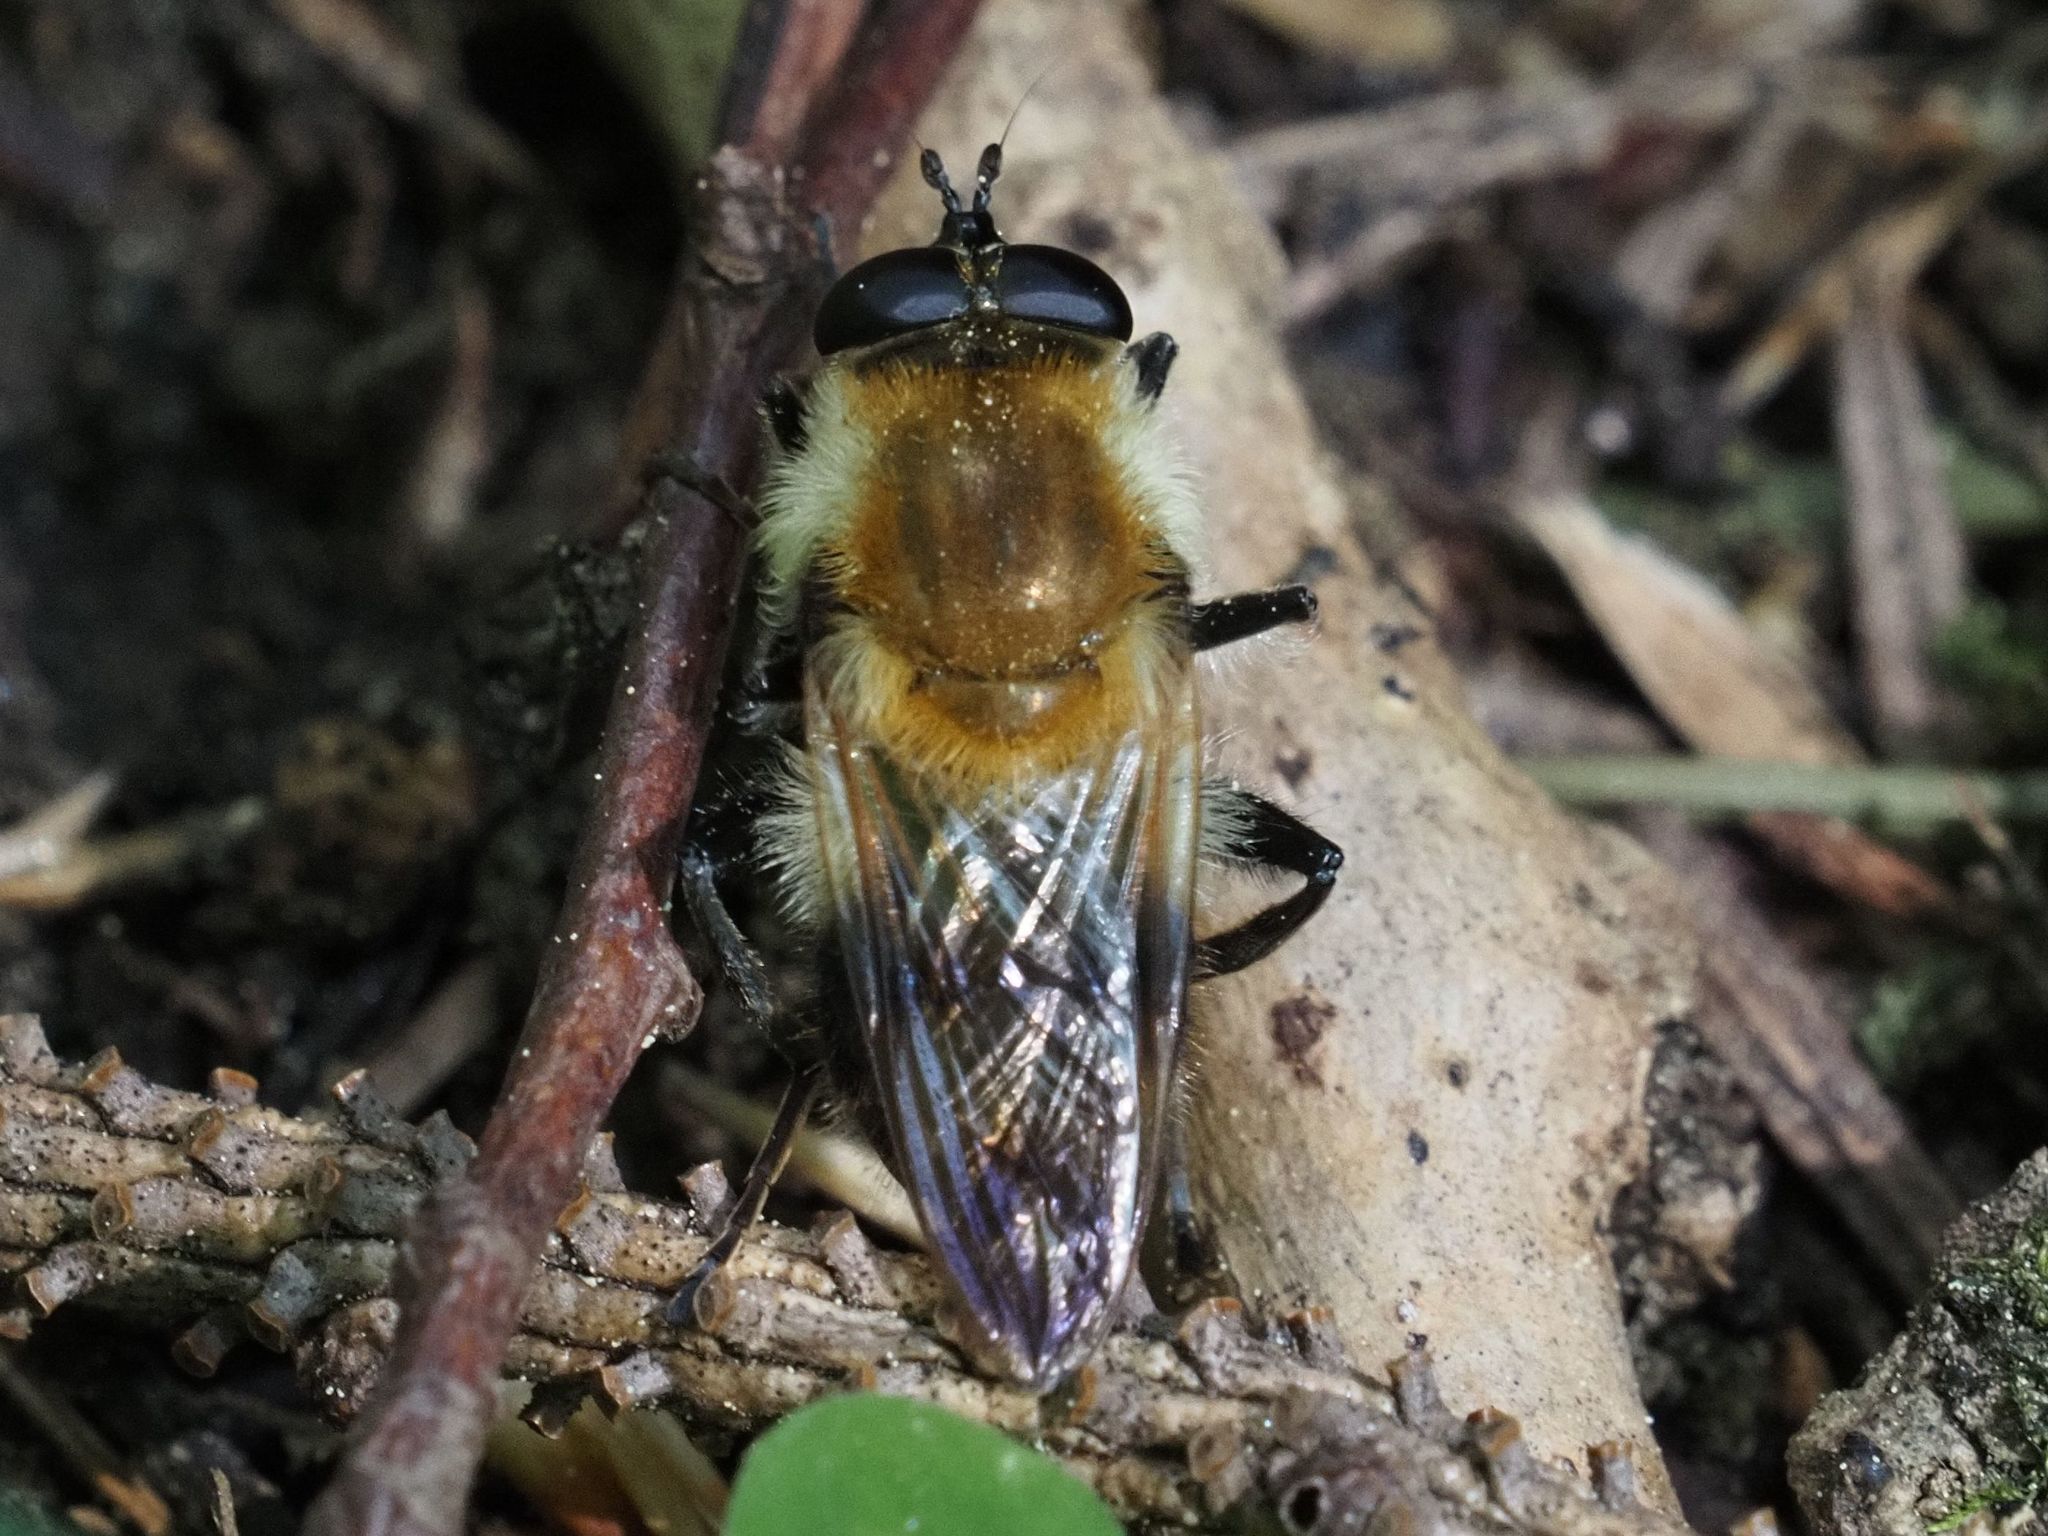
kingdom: Animalia
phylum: Arthropoda
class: Insecta
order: Diptera
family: Syrphidae
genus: Criorhina
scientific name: Criorhina floccosa
